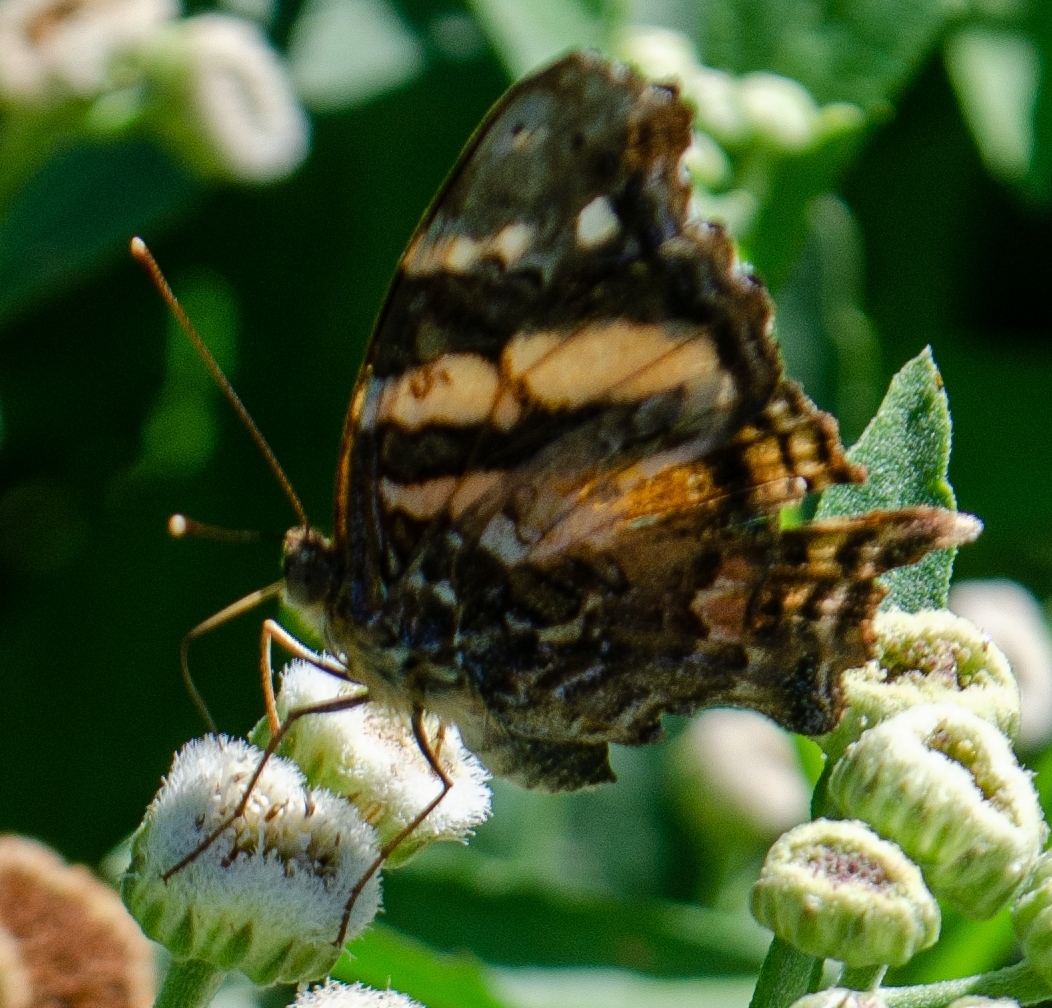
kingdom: Animalia
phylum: Arthropoda
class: Insecta
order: Lepidoptera
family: Nymphalidae
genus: Hypanartia
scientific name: Hypanartia bella
